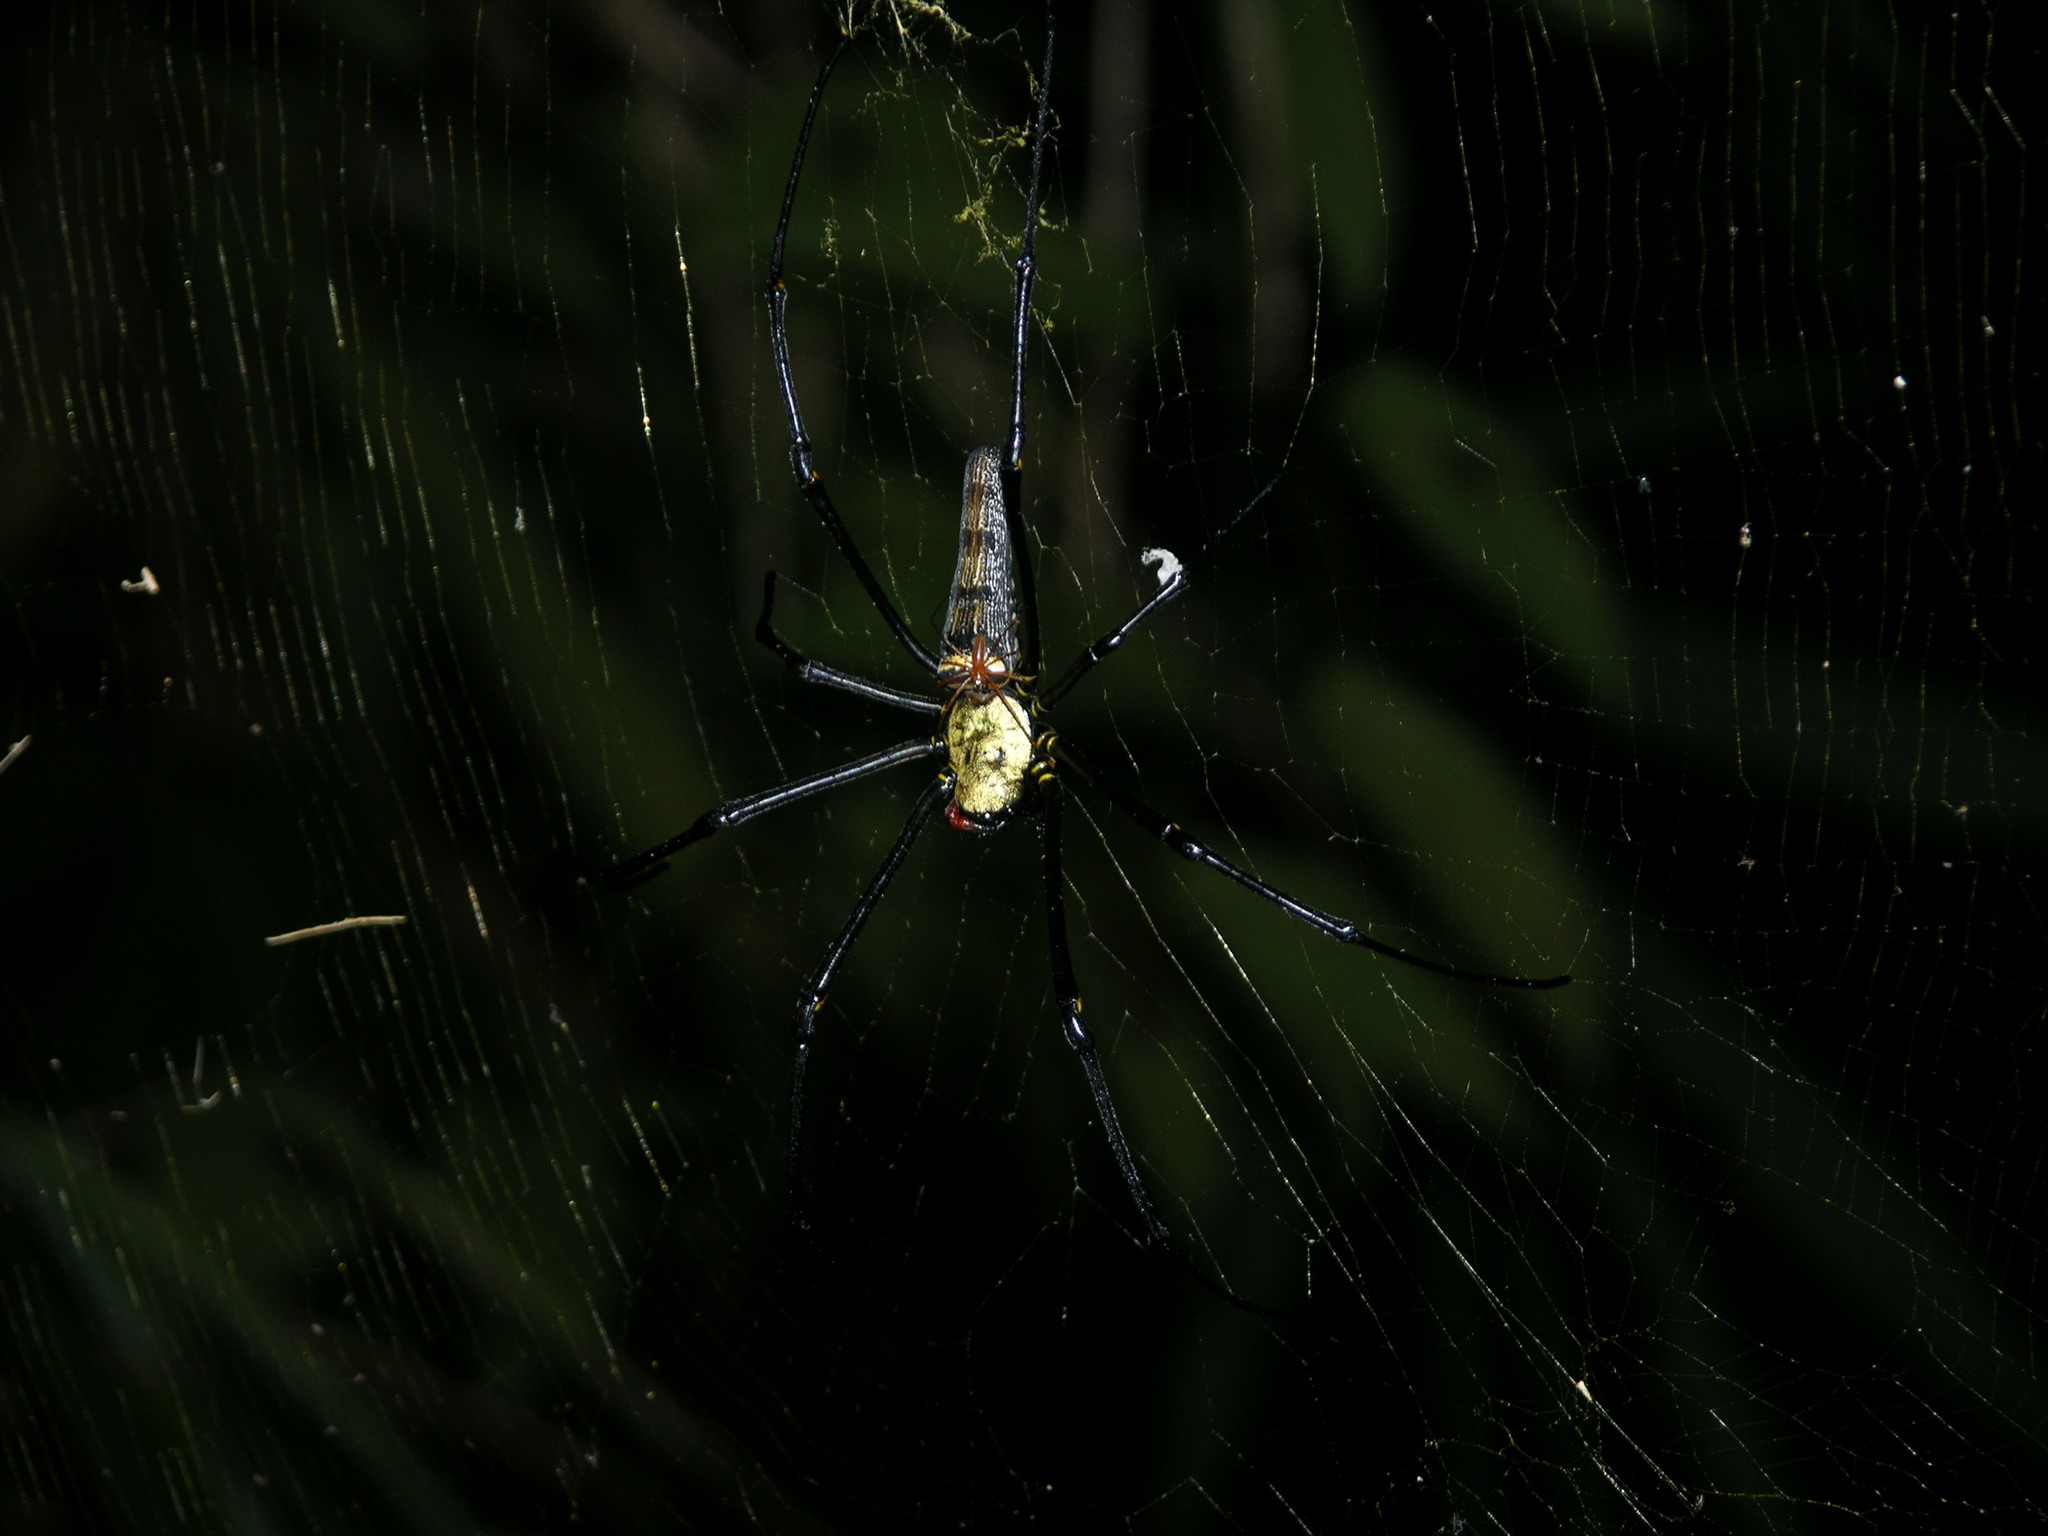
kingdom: Animalia
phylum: Arthropoda
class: Arachnida
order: Araneae
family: Araneidae
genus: Nephila
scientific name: Nephila pilipes
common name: Giant golden orb weaver
